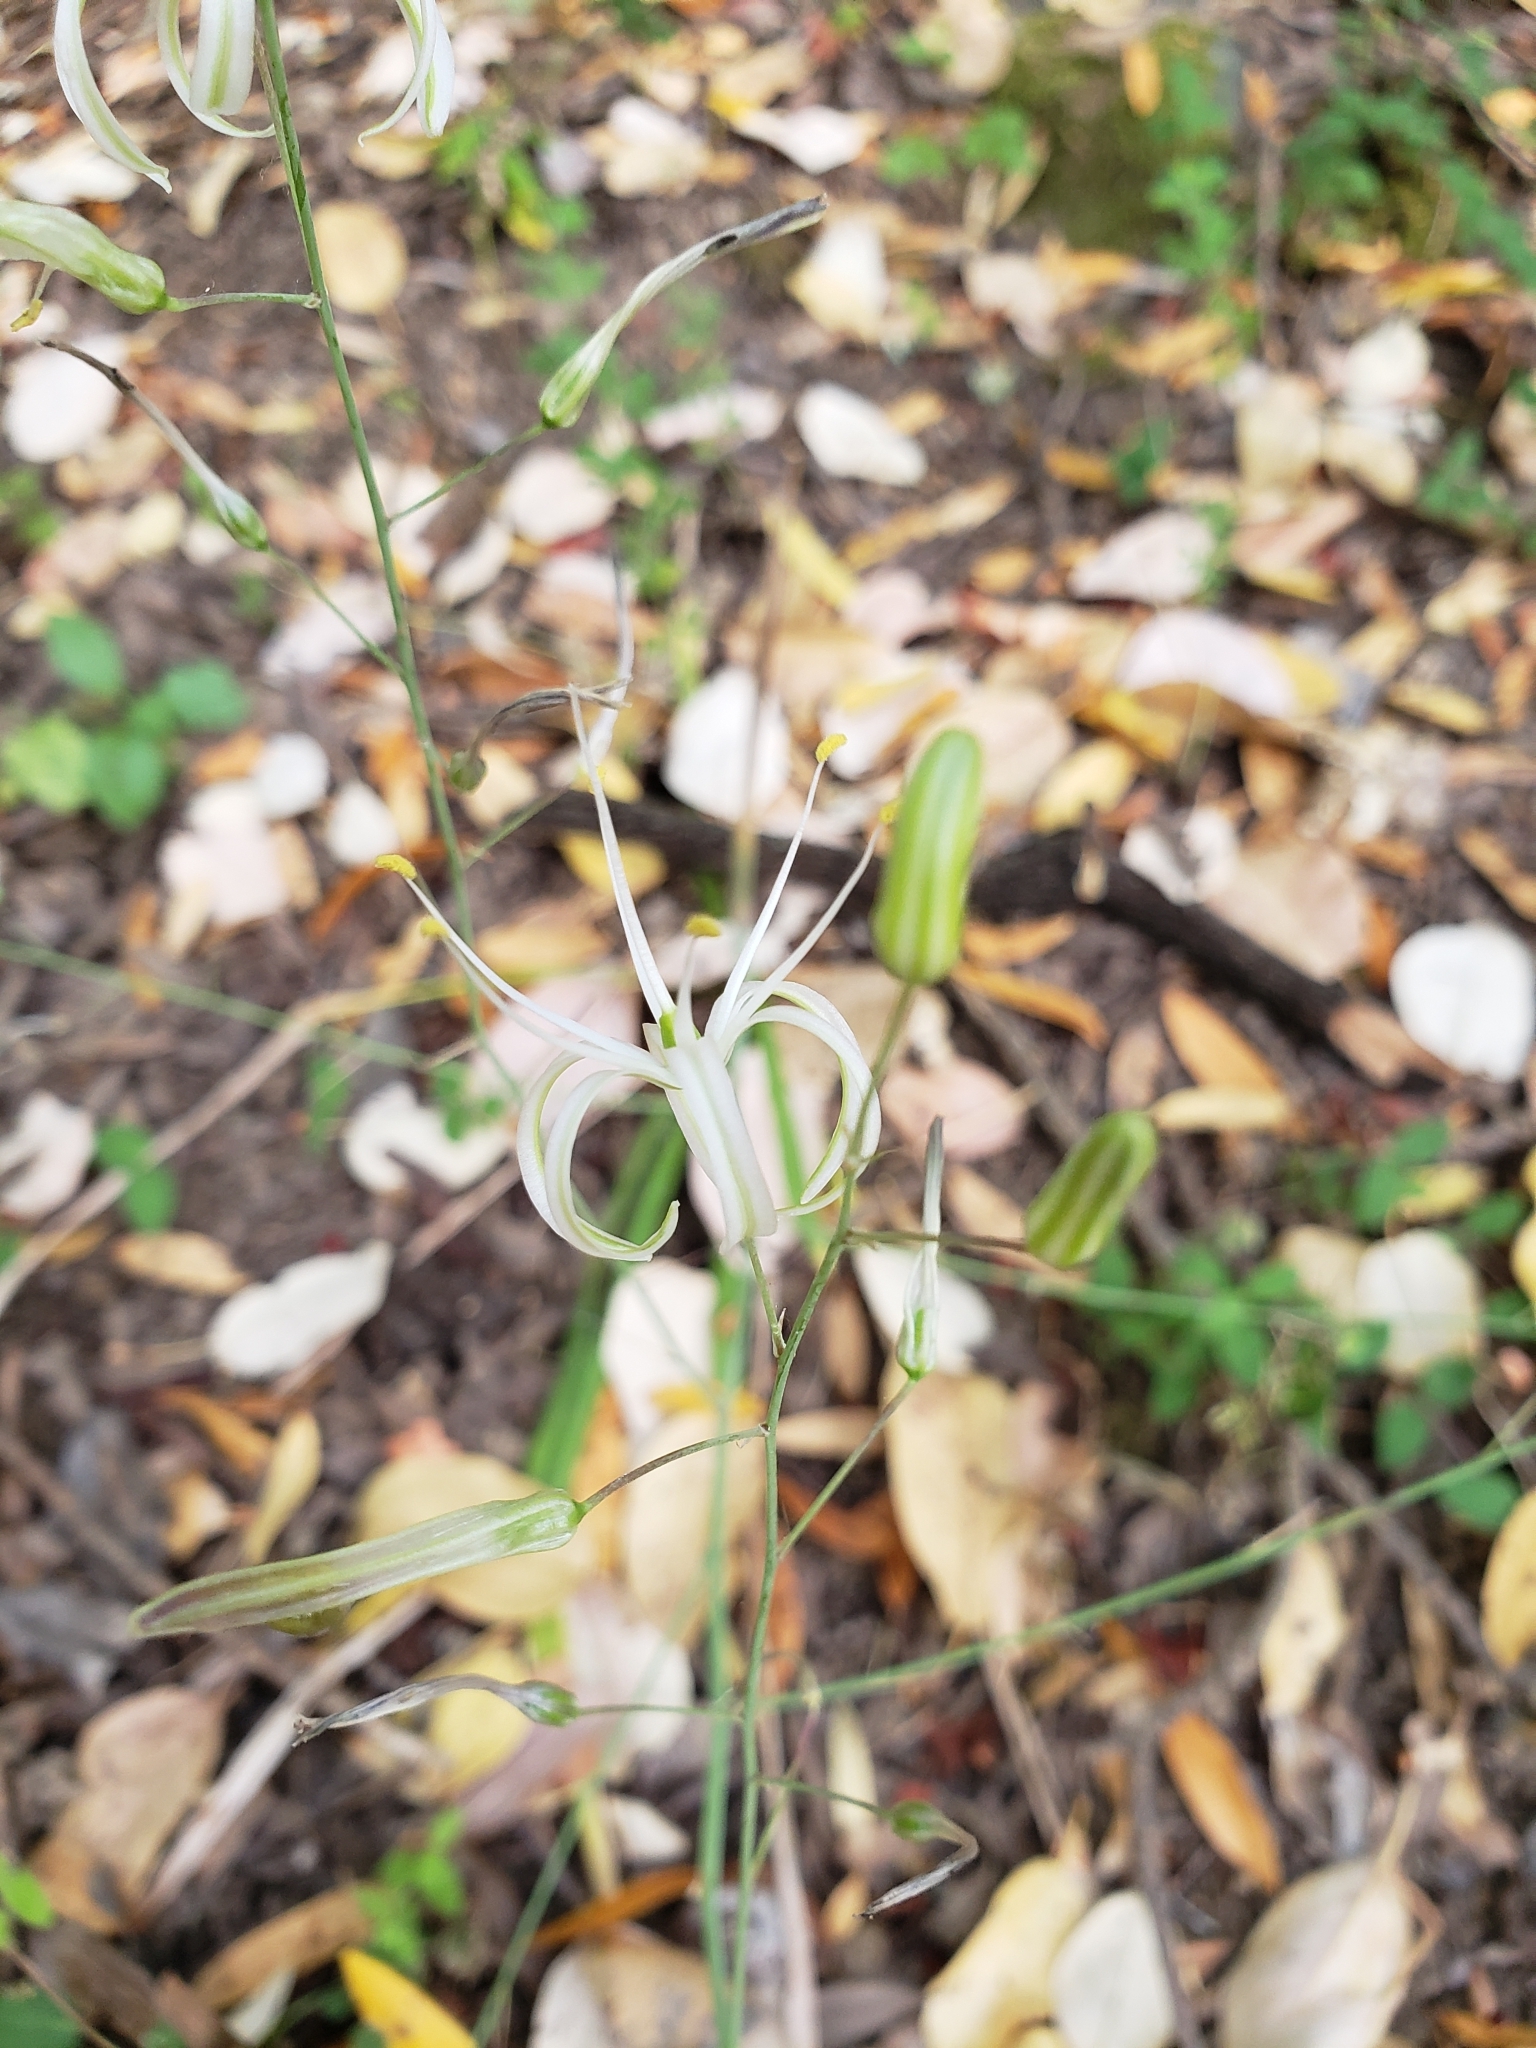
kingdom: Plantae
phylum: Tracheophyta
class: Liliopsida
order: Asparagales
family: Asparagaceae
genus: Chlorogalum
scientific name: Chlorogalum pomeridianum
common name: Amole
